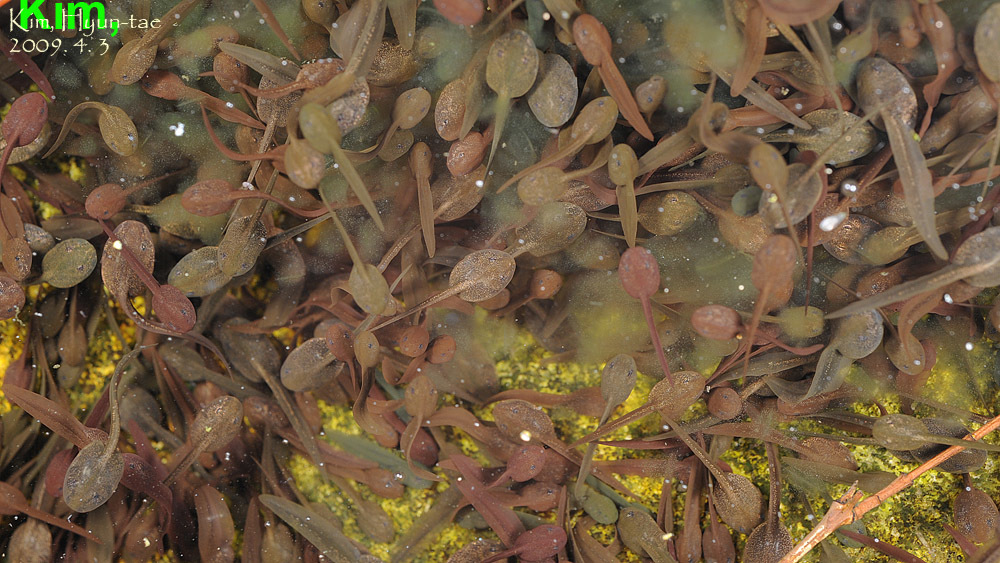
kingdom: Animalia
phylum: Chordata
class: Amphibia
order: Anura
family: Ranidae
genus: Rana
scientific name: Rana uenoi
